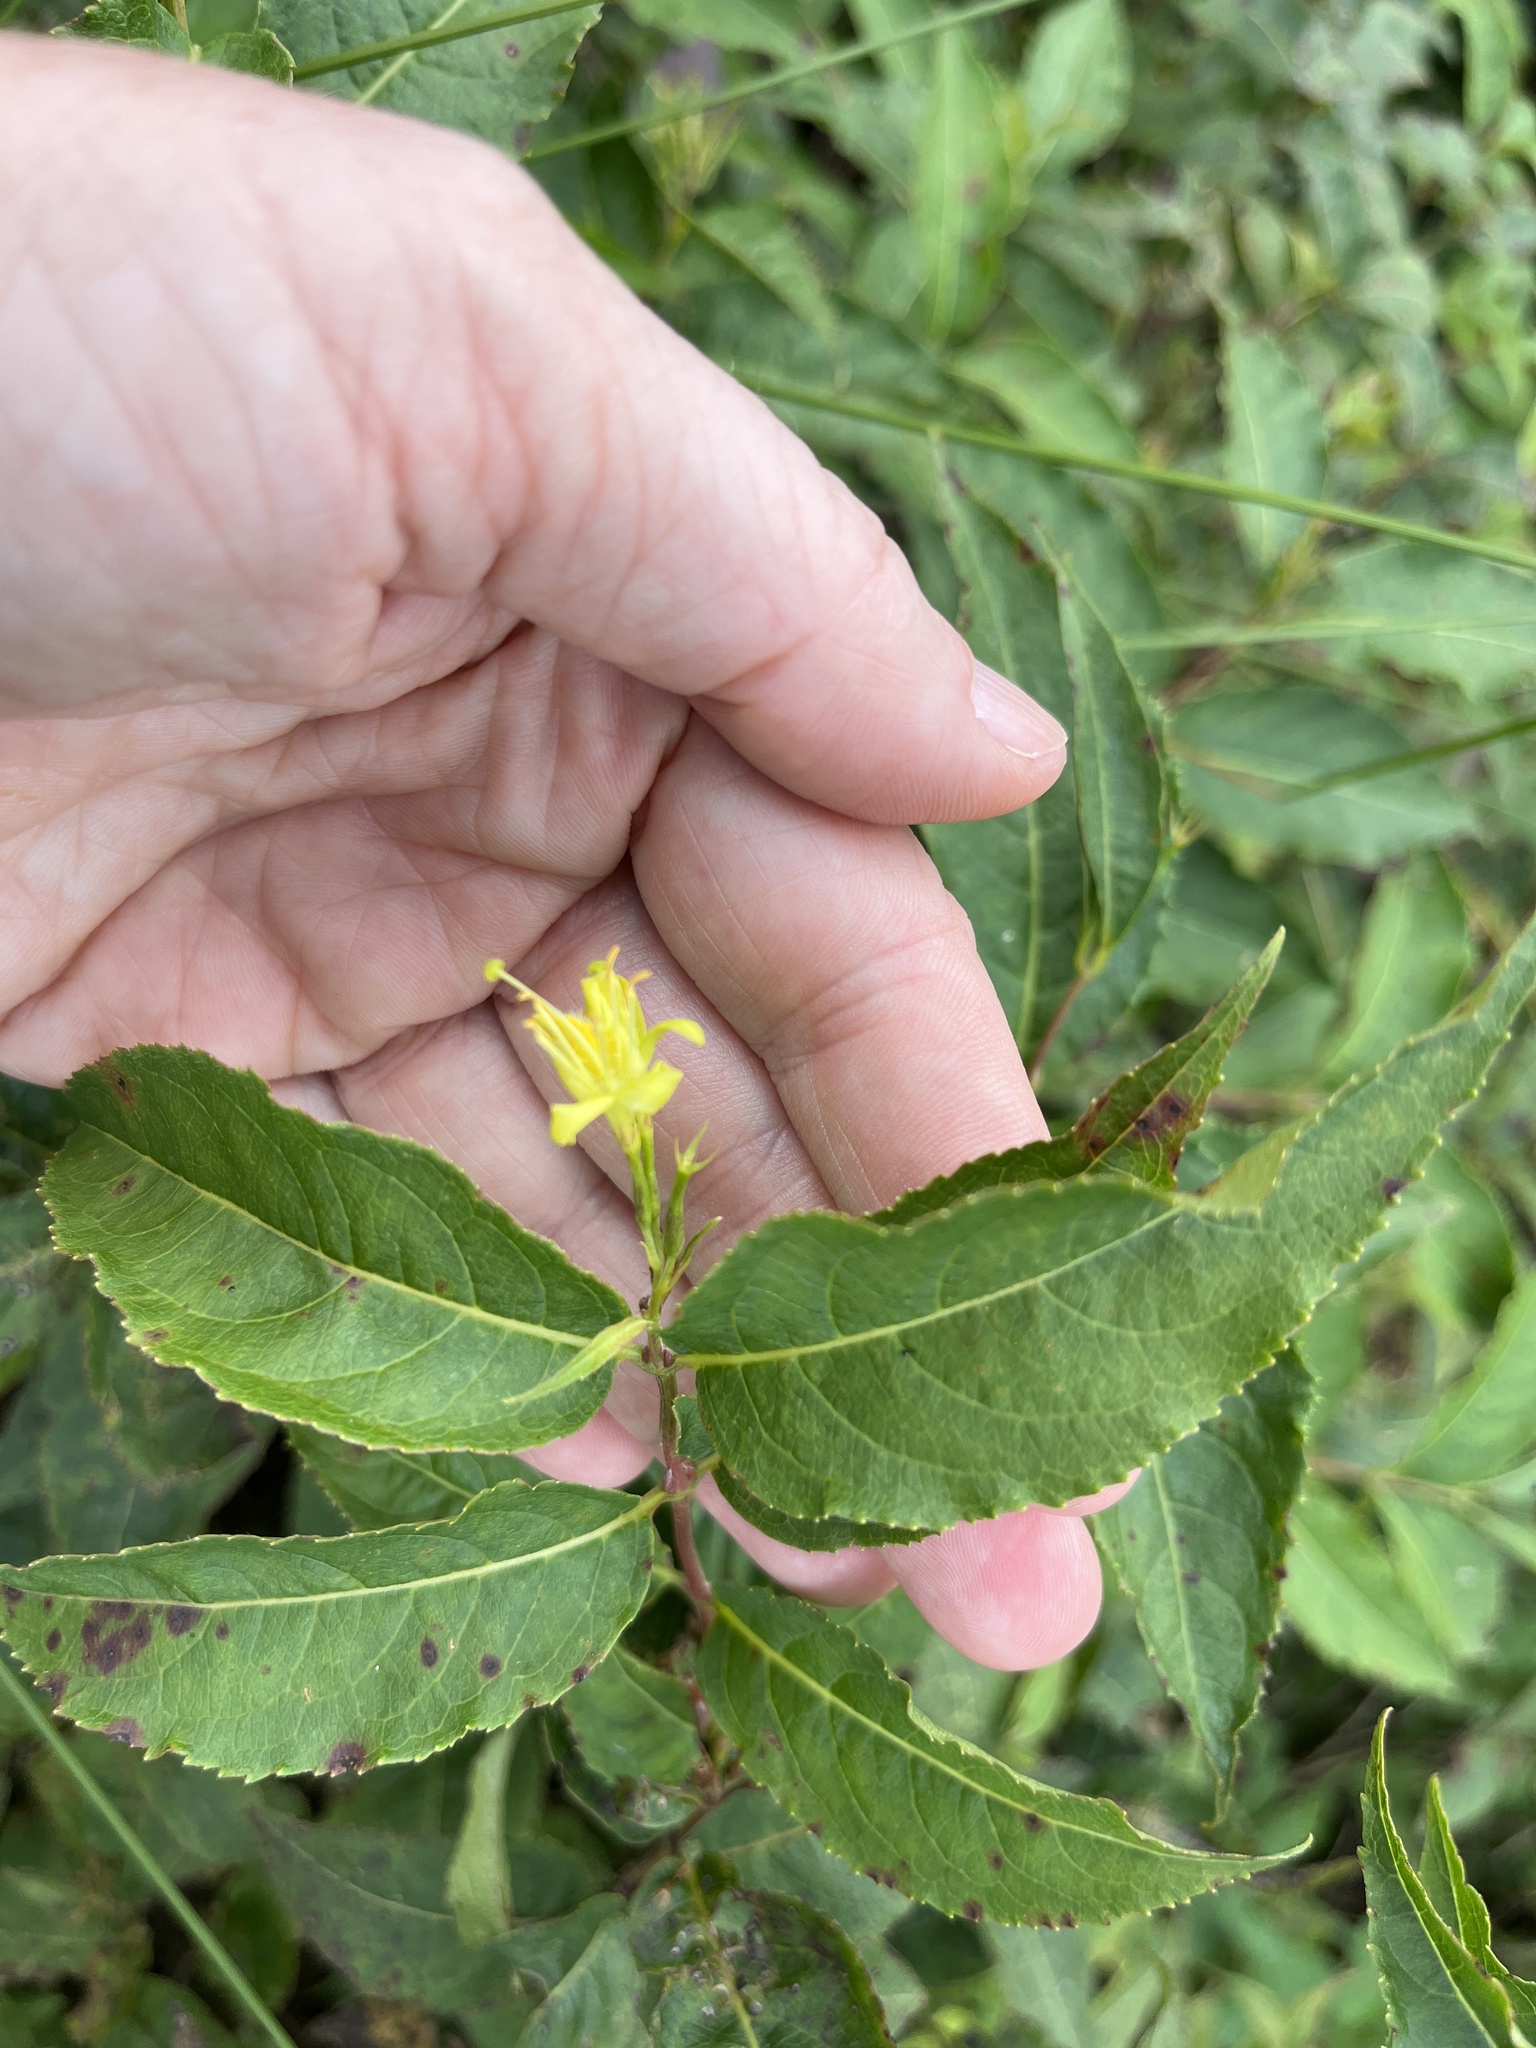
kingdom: Plantae
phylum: Tracheophyta
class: Magnoliopsida
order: Dipsacales
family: Caprifoliaceae
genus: Diervilla
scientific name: Diervilla lonicera
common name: Bush-honeysuckle
